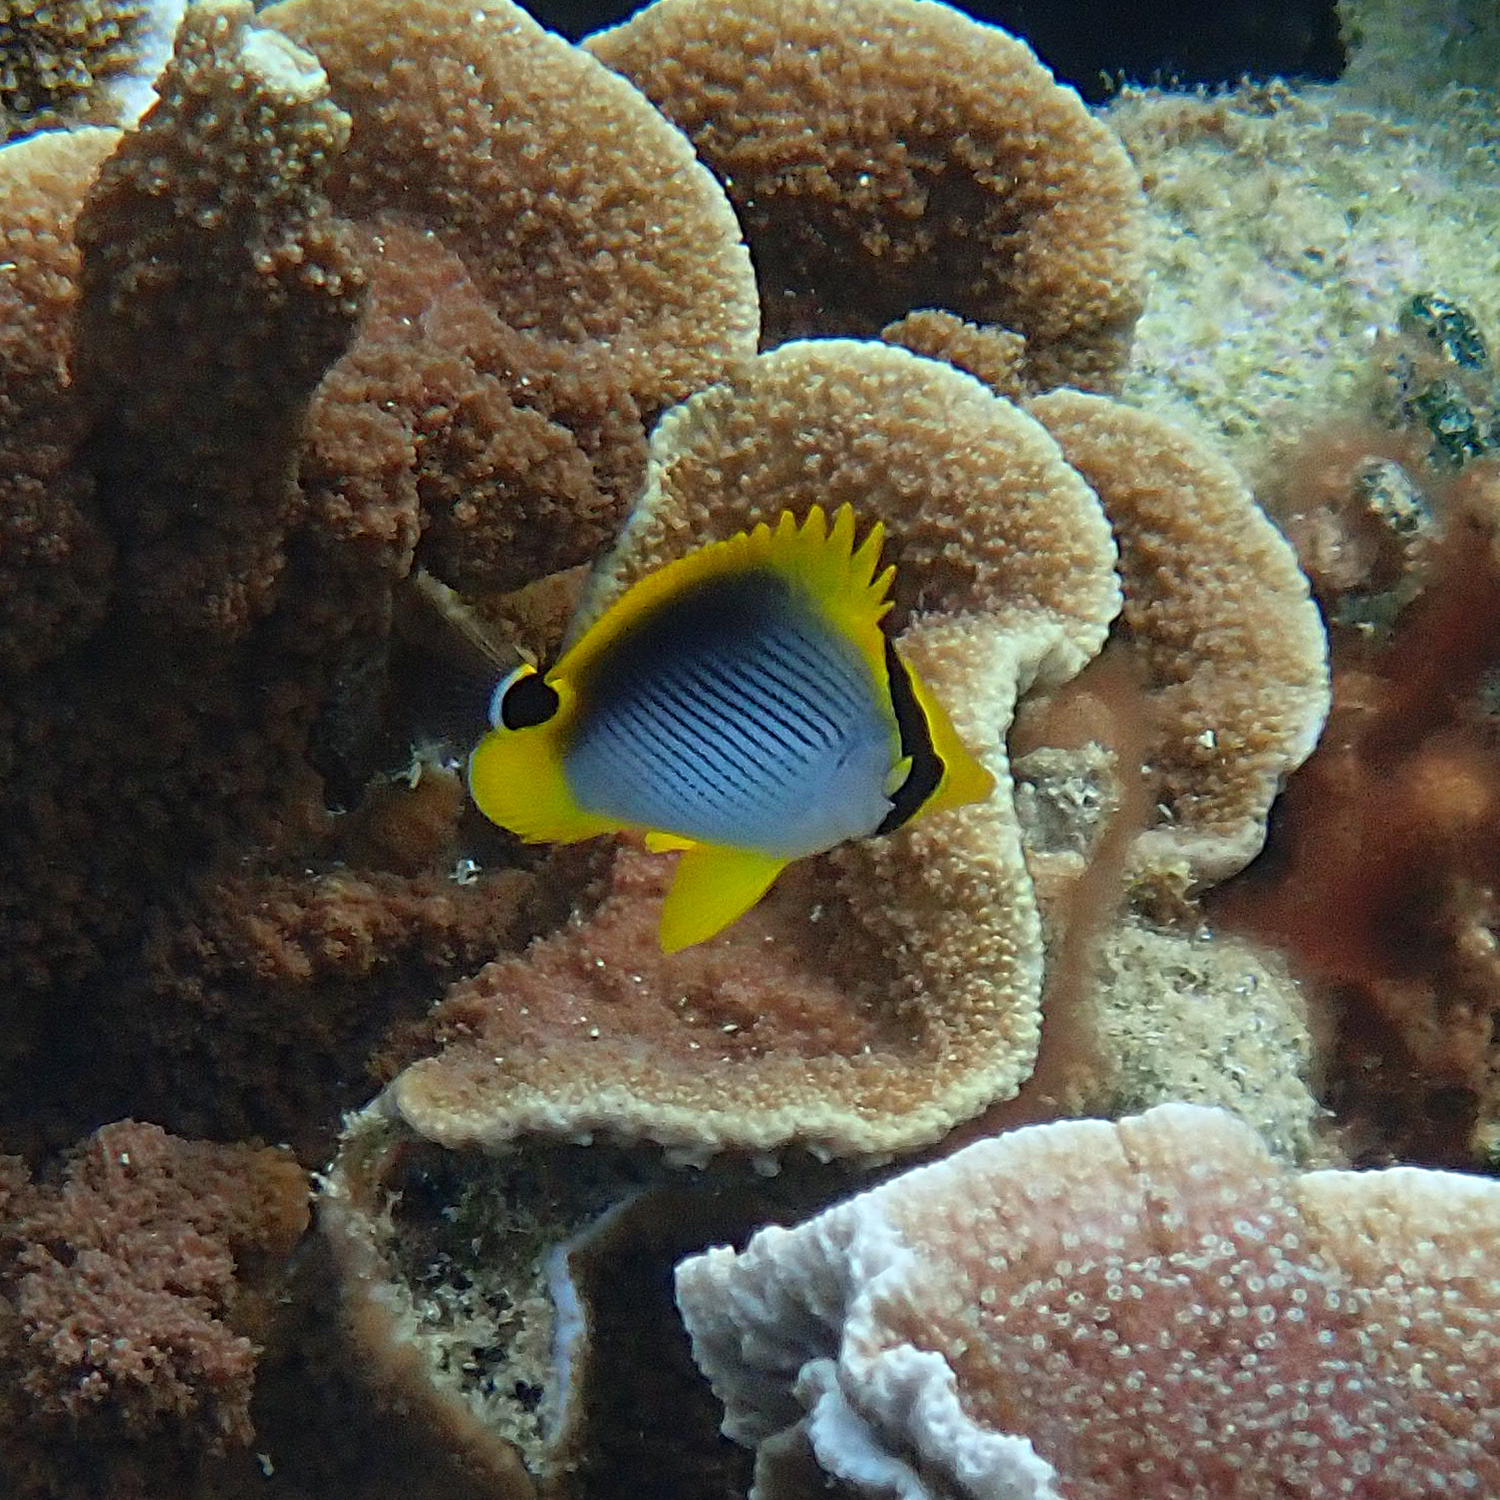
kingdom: Animalia
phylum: Chordata
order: Perciformes
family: Chaetodontidae
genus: Chaetodon
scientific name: Chaetodon melannotus
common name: Blackback butterflyfish
